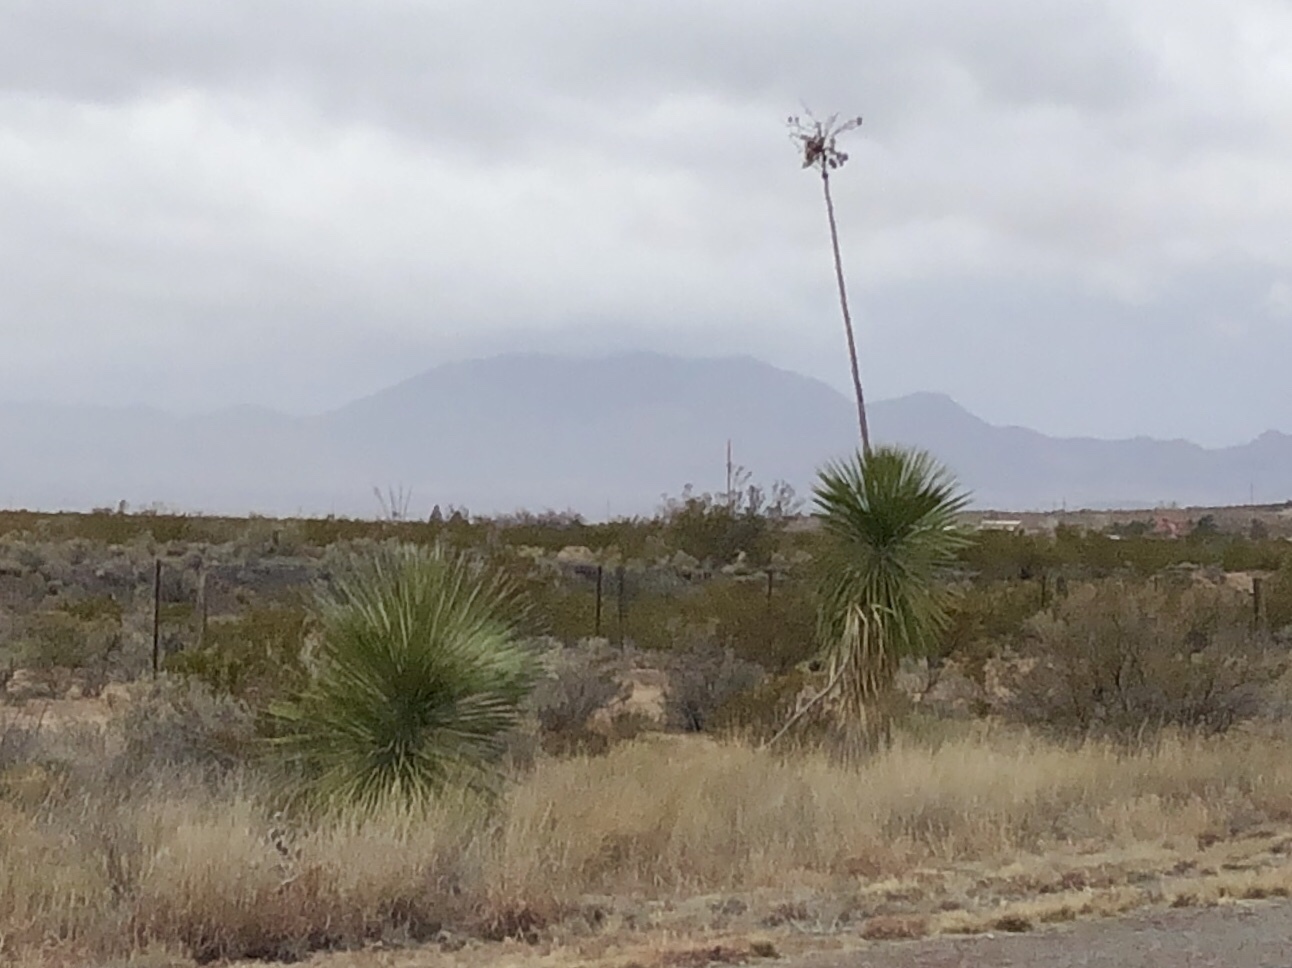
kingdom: Plantae
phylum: Tracheophyta
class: Liliopsida
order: Asparagales
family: Asparagaceae
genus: Yucca
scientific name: Yucca elata
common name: Palmella
